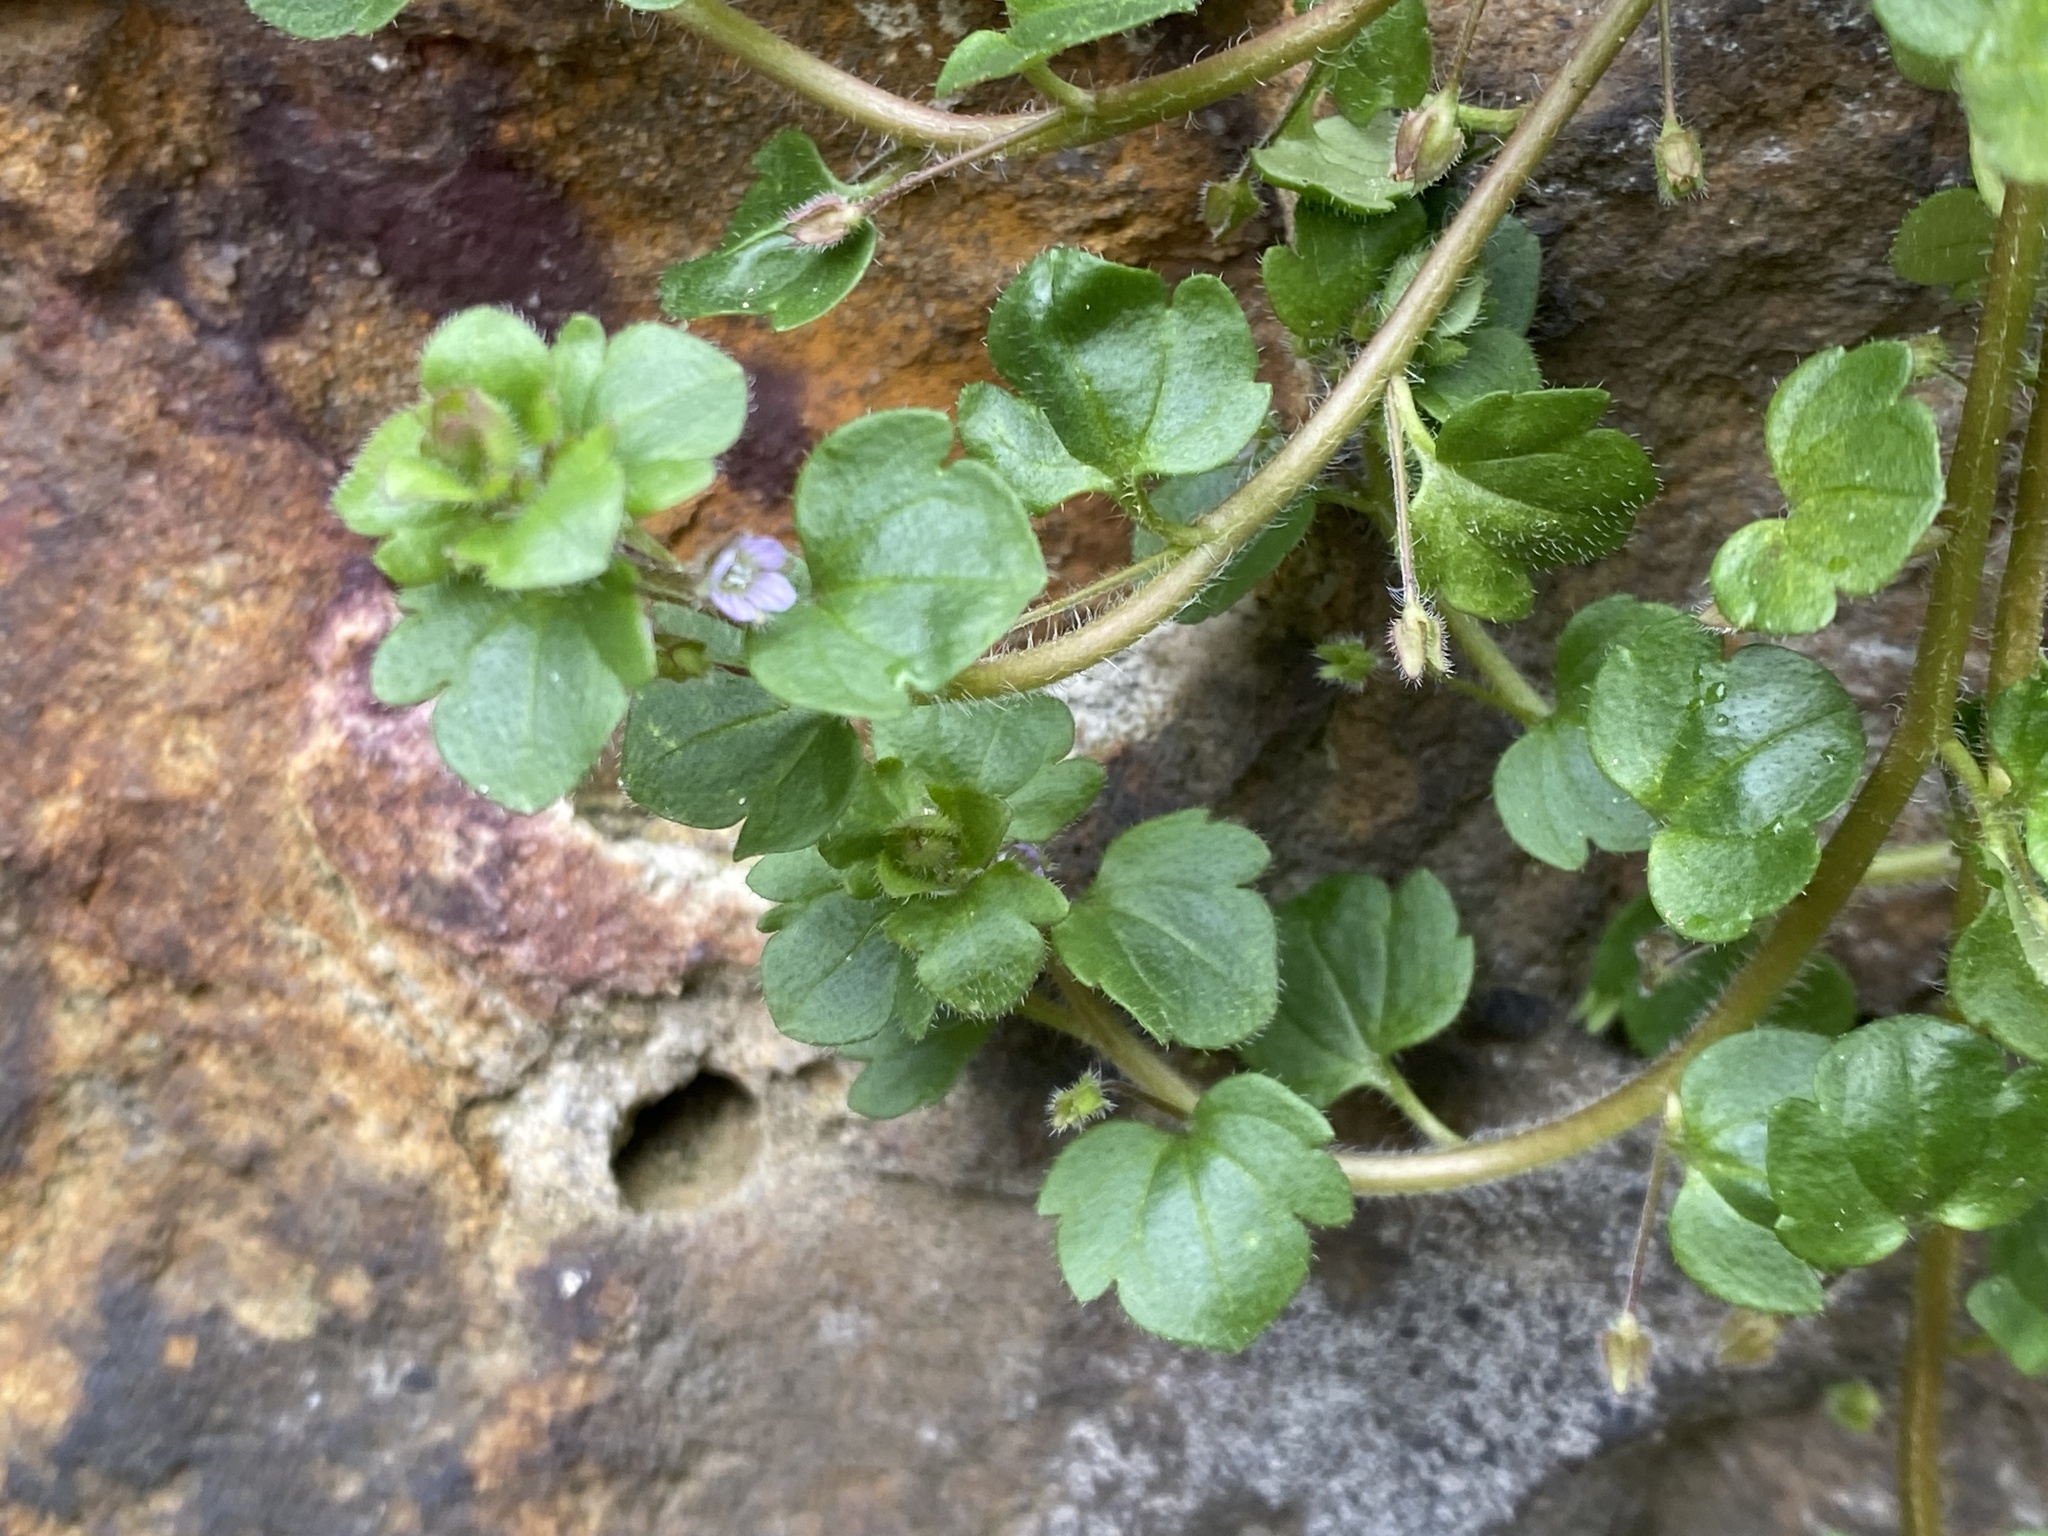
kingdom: Plantae
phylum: Tracheophyta
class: Magnoliopsida
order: Lamiales
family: Plantaginaceae
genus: Veronica
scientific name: Veronica sublobata
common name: False ivy-leaved speedwell
